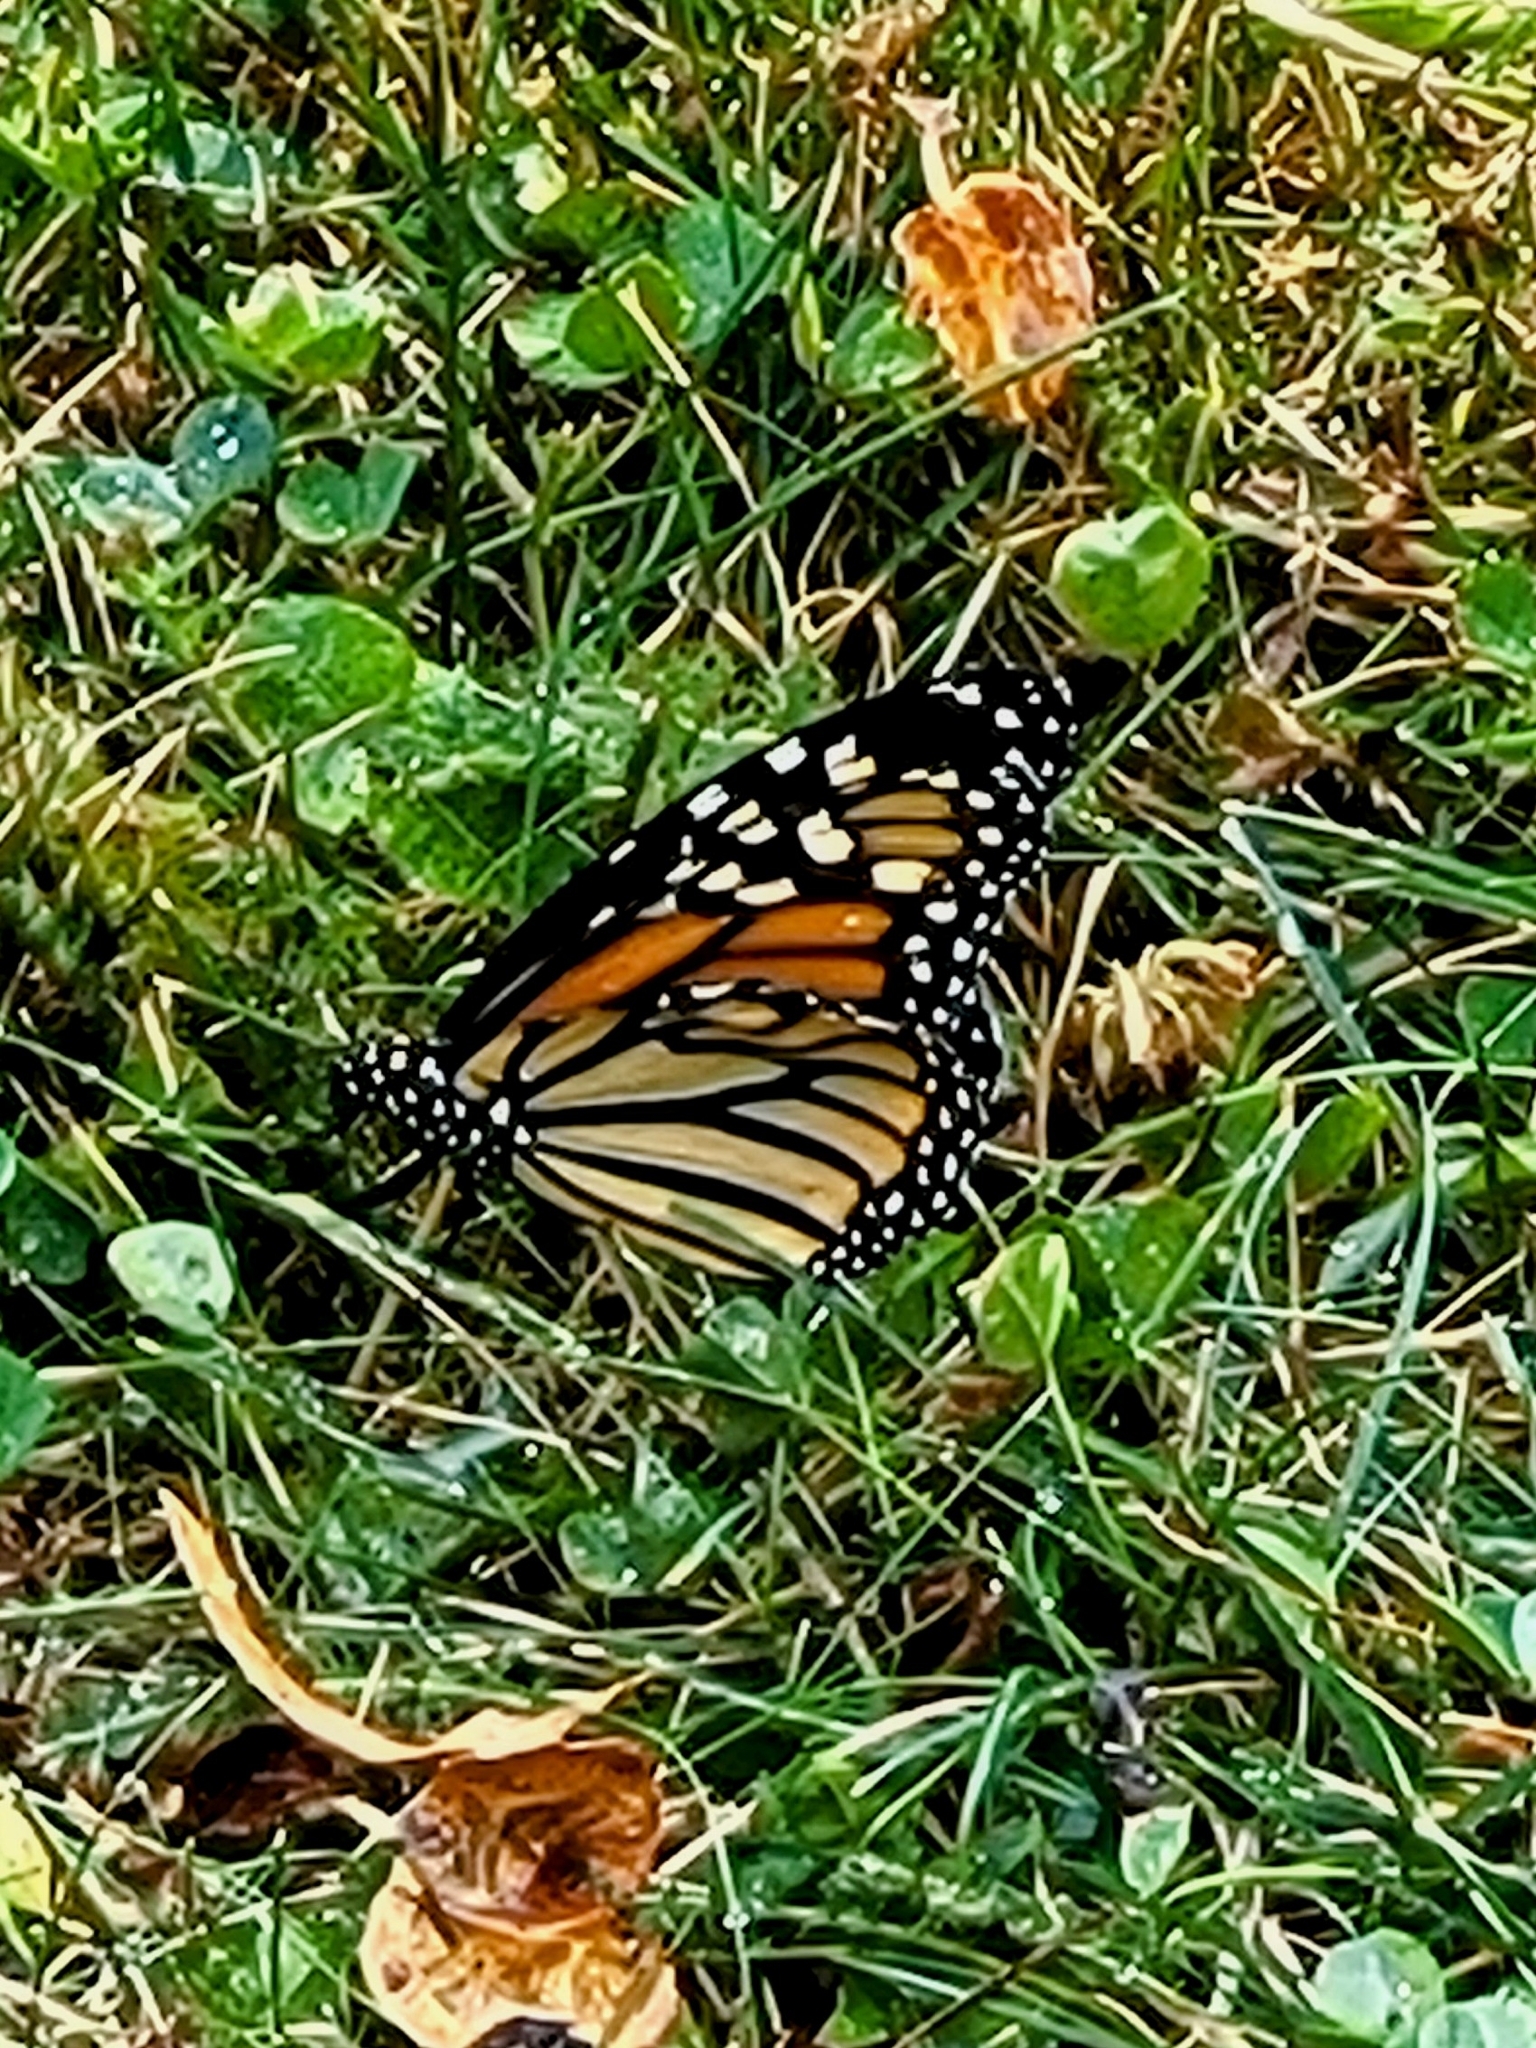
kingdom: Animalia
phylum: Arthropoda
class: Insecta
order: Lepidoptera
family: Nymphalidae
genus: Danaus
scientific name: Danaus plexippus
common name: Monarch
